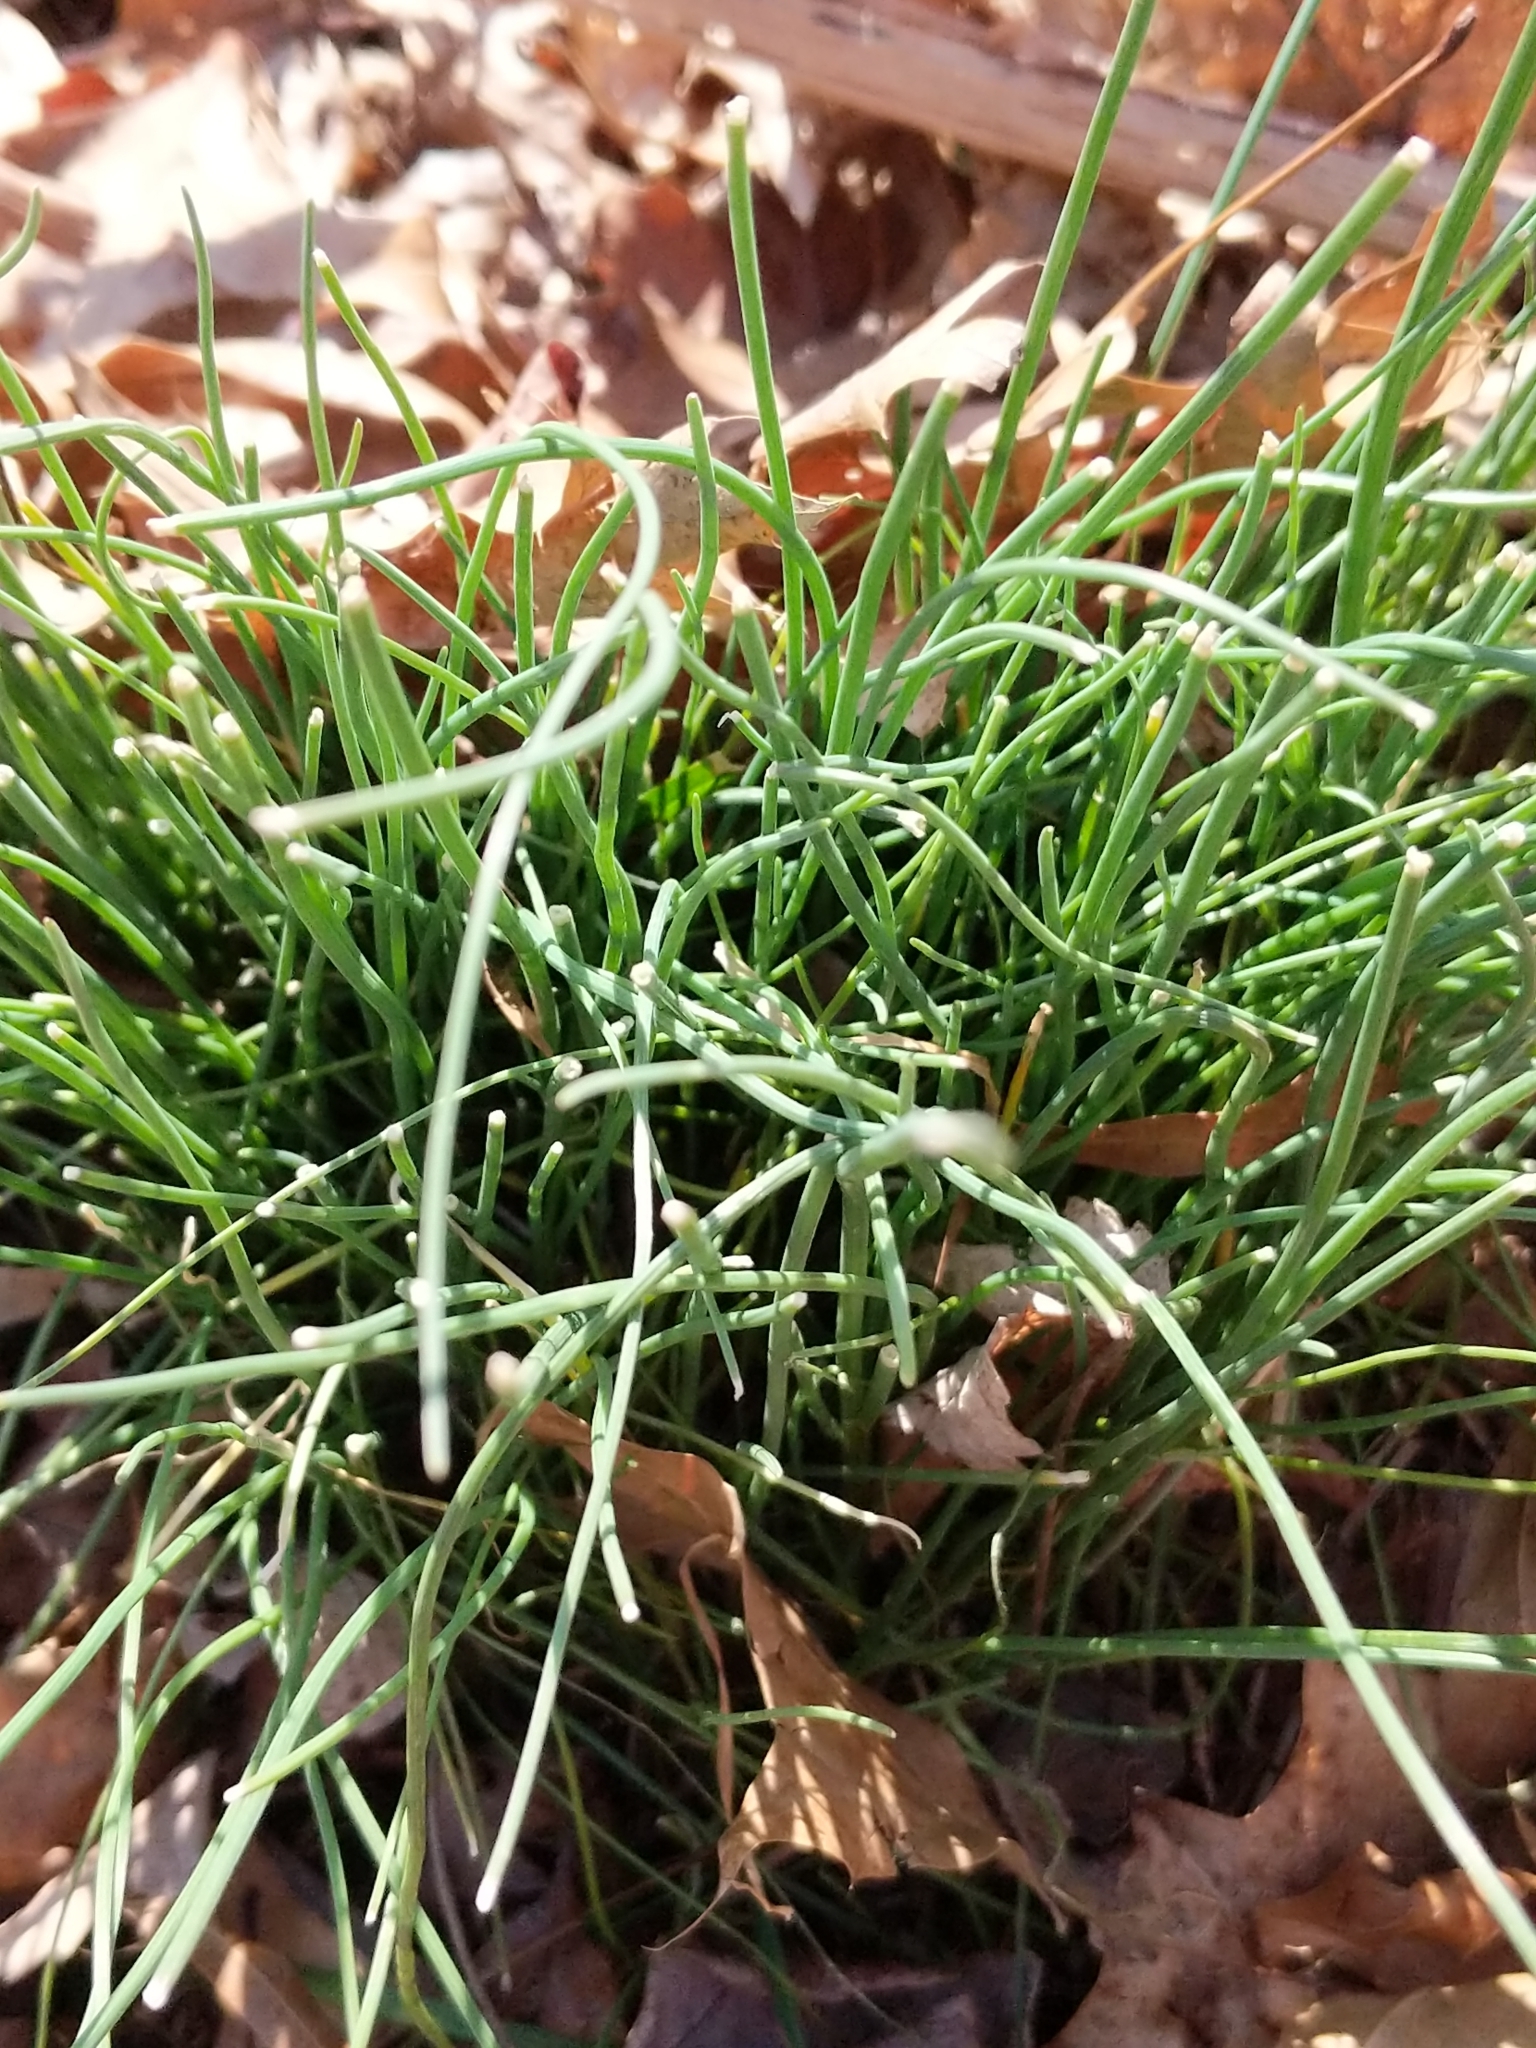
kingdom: Plantae
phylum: Tracheophyta
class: Liliopsida
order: Asparagales
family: Amaryllidaceae
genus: Allium
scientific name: Allium vineale
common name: Crow garlic
